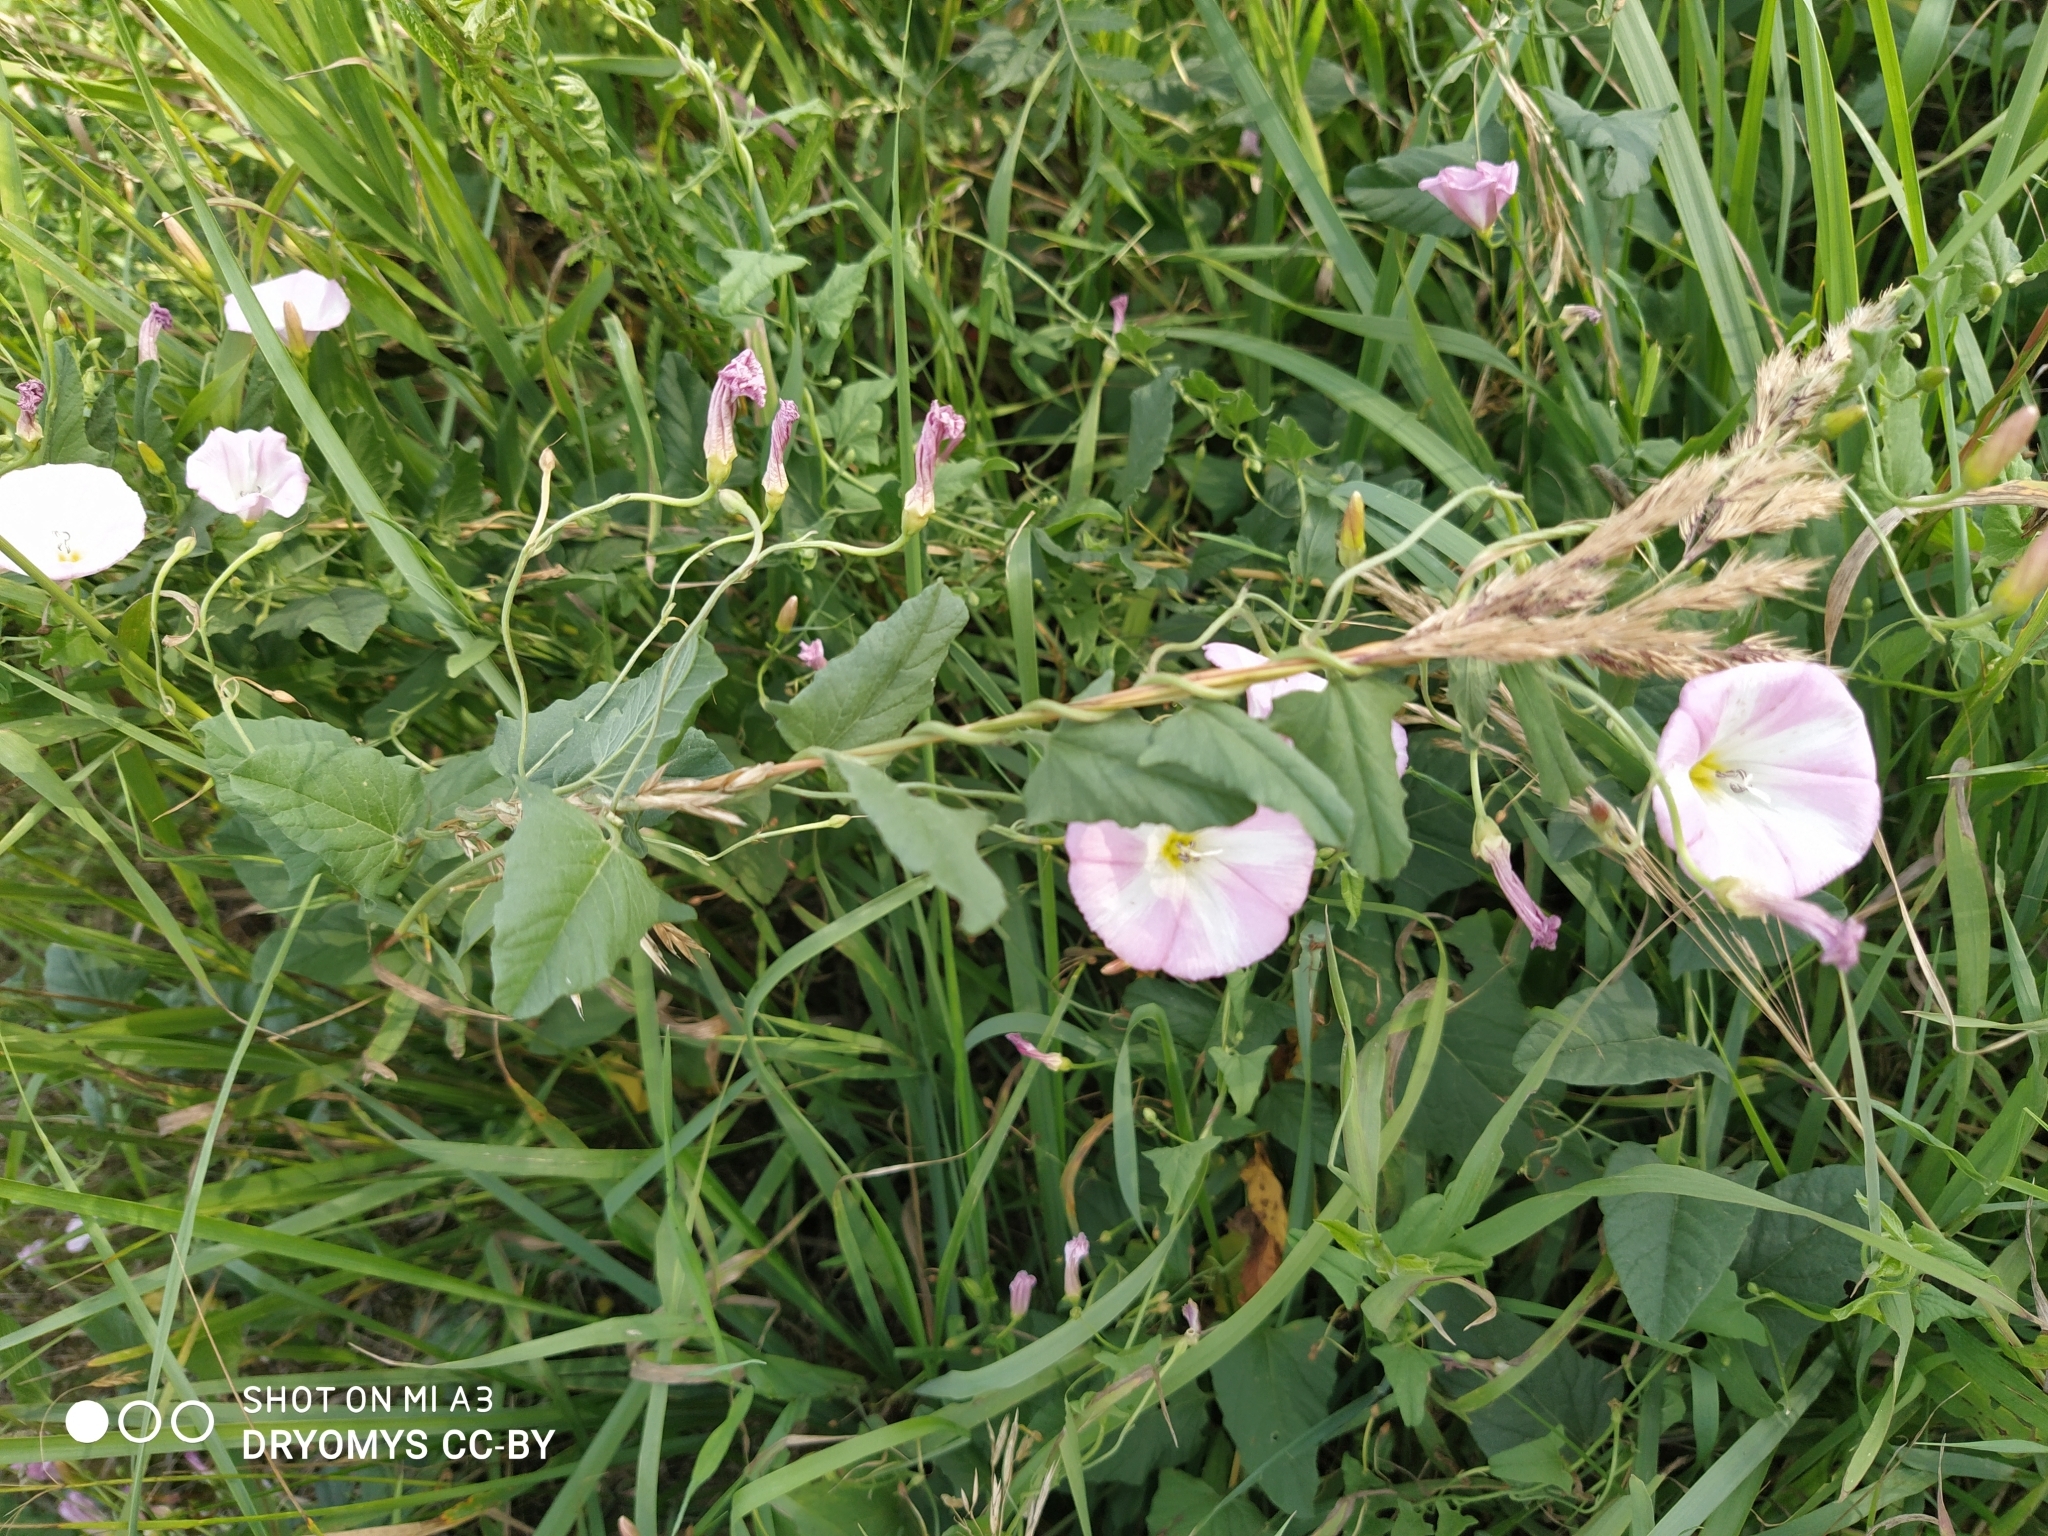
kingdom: Plantae
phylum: Tracheophyta
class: Magnoliopsida
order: Solanales
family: Convolvulaceae
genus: Convolvulus
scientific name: Convolvulus arvensis
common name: Field bindweed
